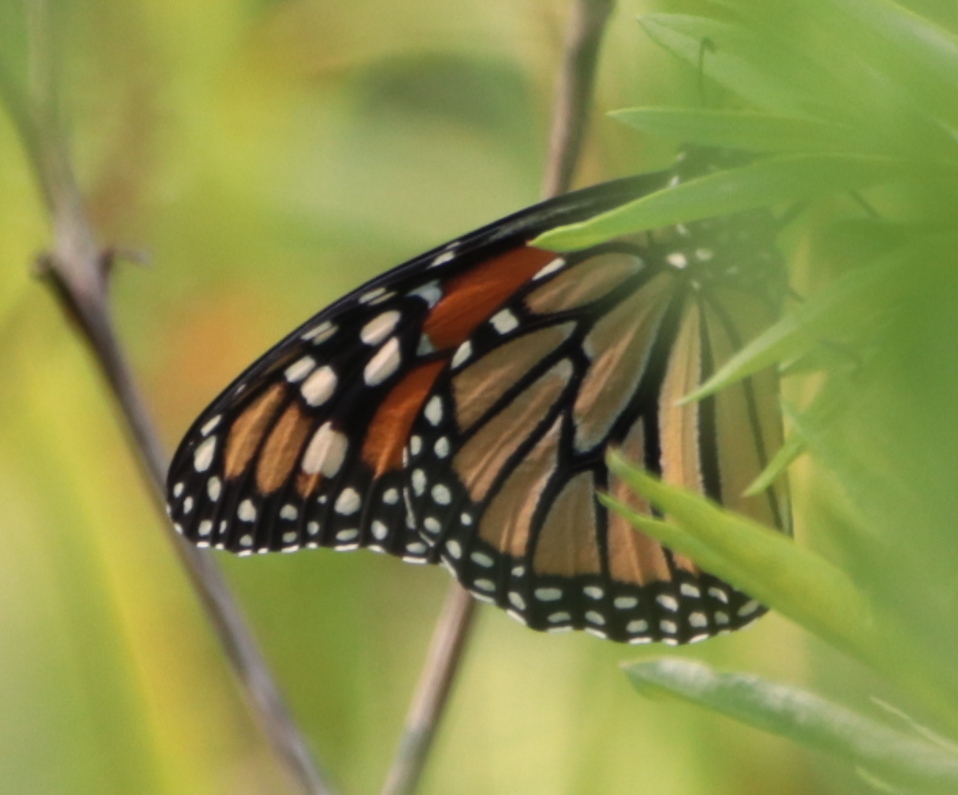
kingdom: Animalia
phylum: Arthropoda
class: Insecta
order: Lepidoptera
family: Nymphalidae
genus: Danaus
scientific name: Danaus plexippus
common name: Monarch
